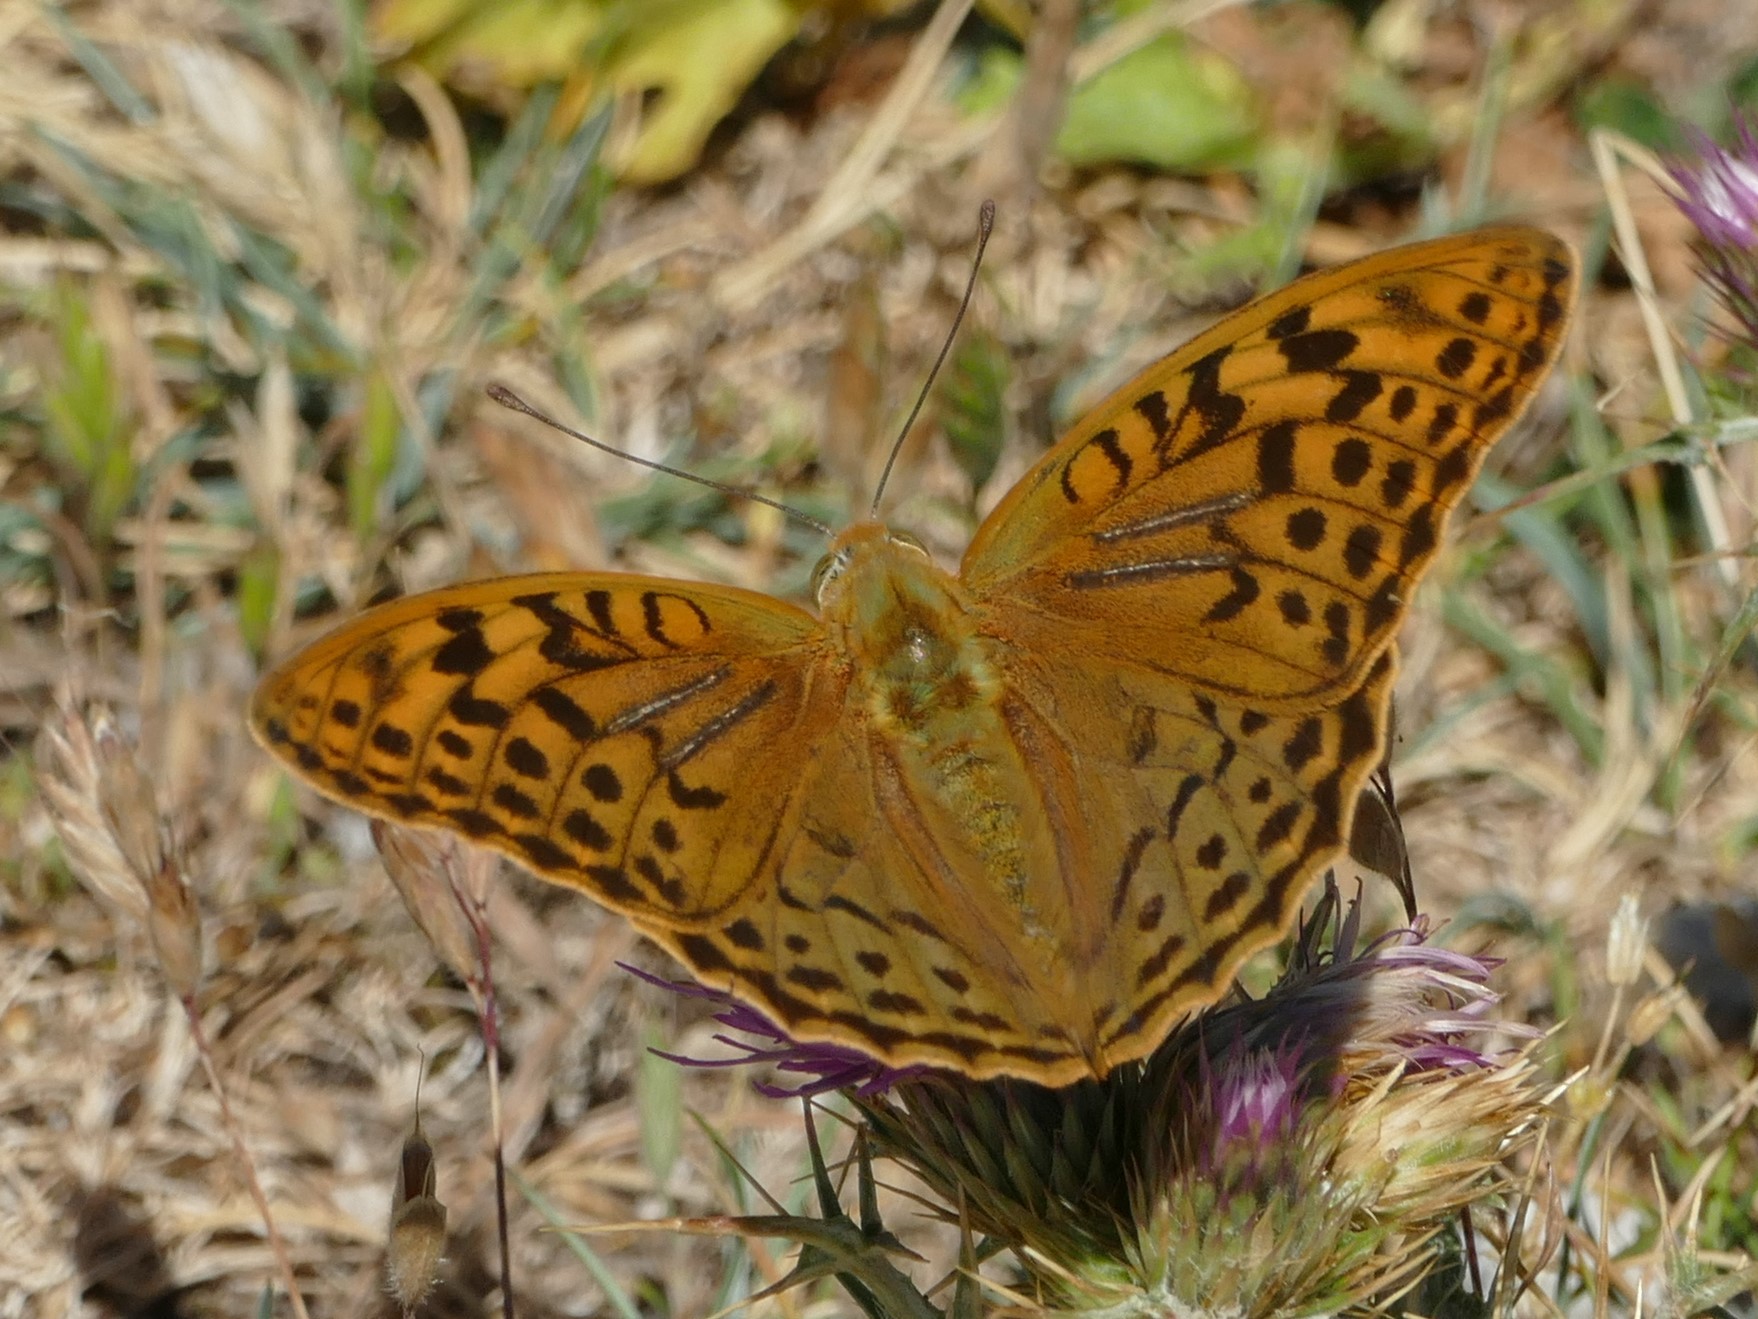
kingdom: Animalia
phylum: Arthropoda
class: Insecta
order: Lepidoptera
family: Nymphalidae
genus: Damora
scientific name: Damora pandora
